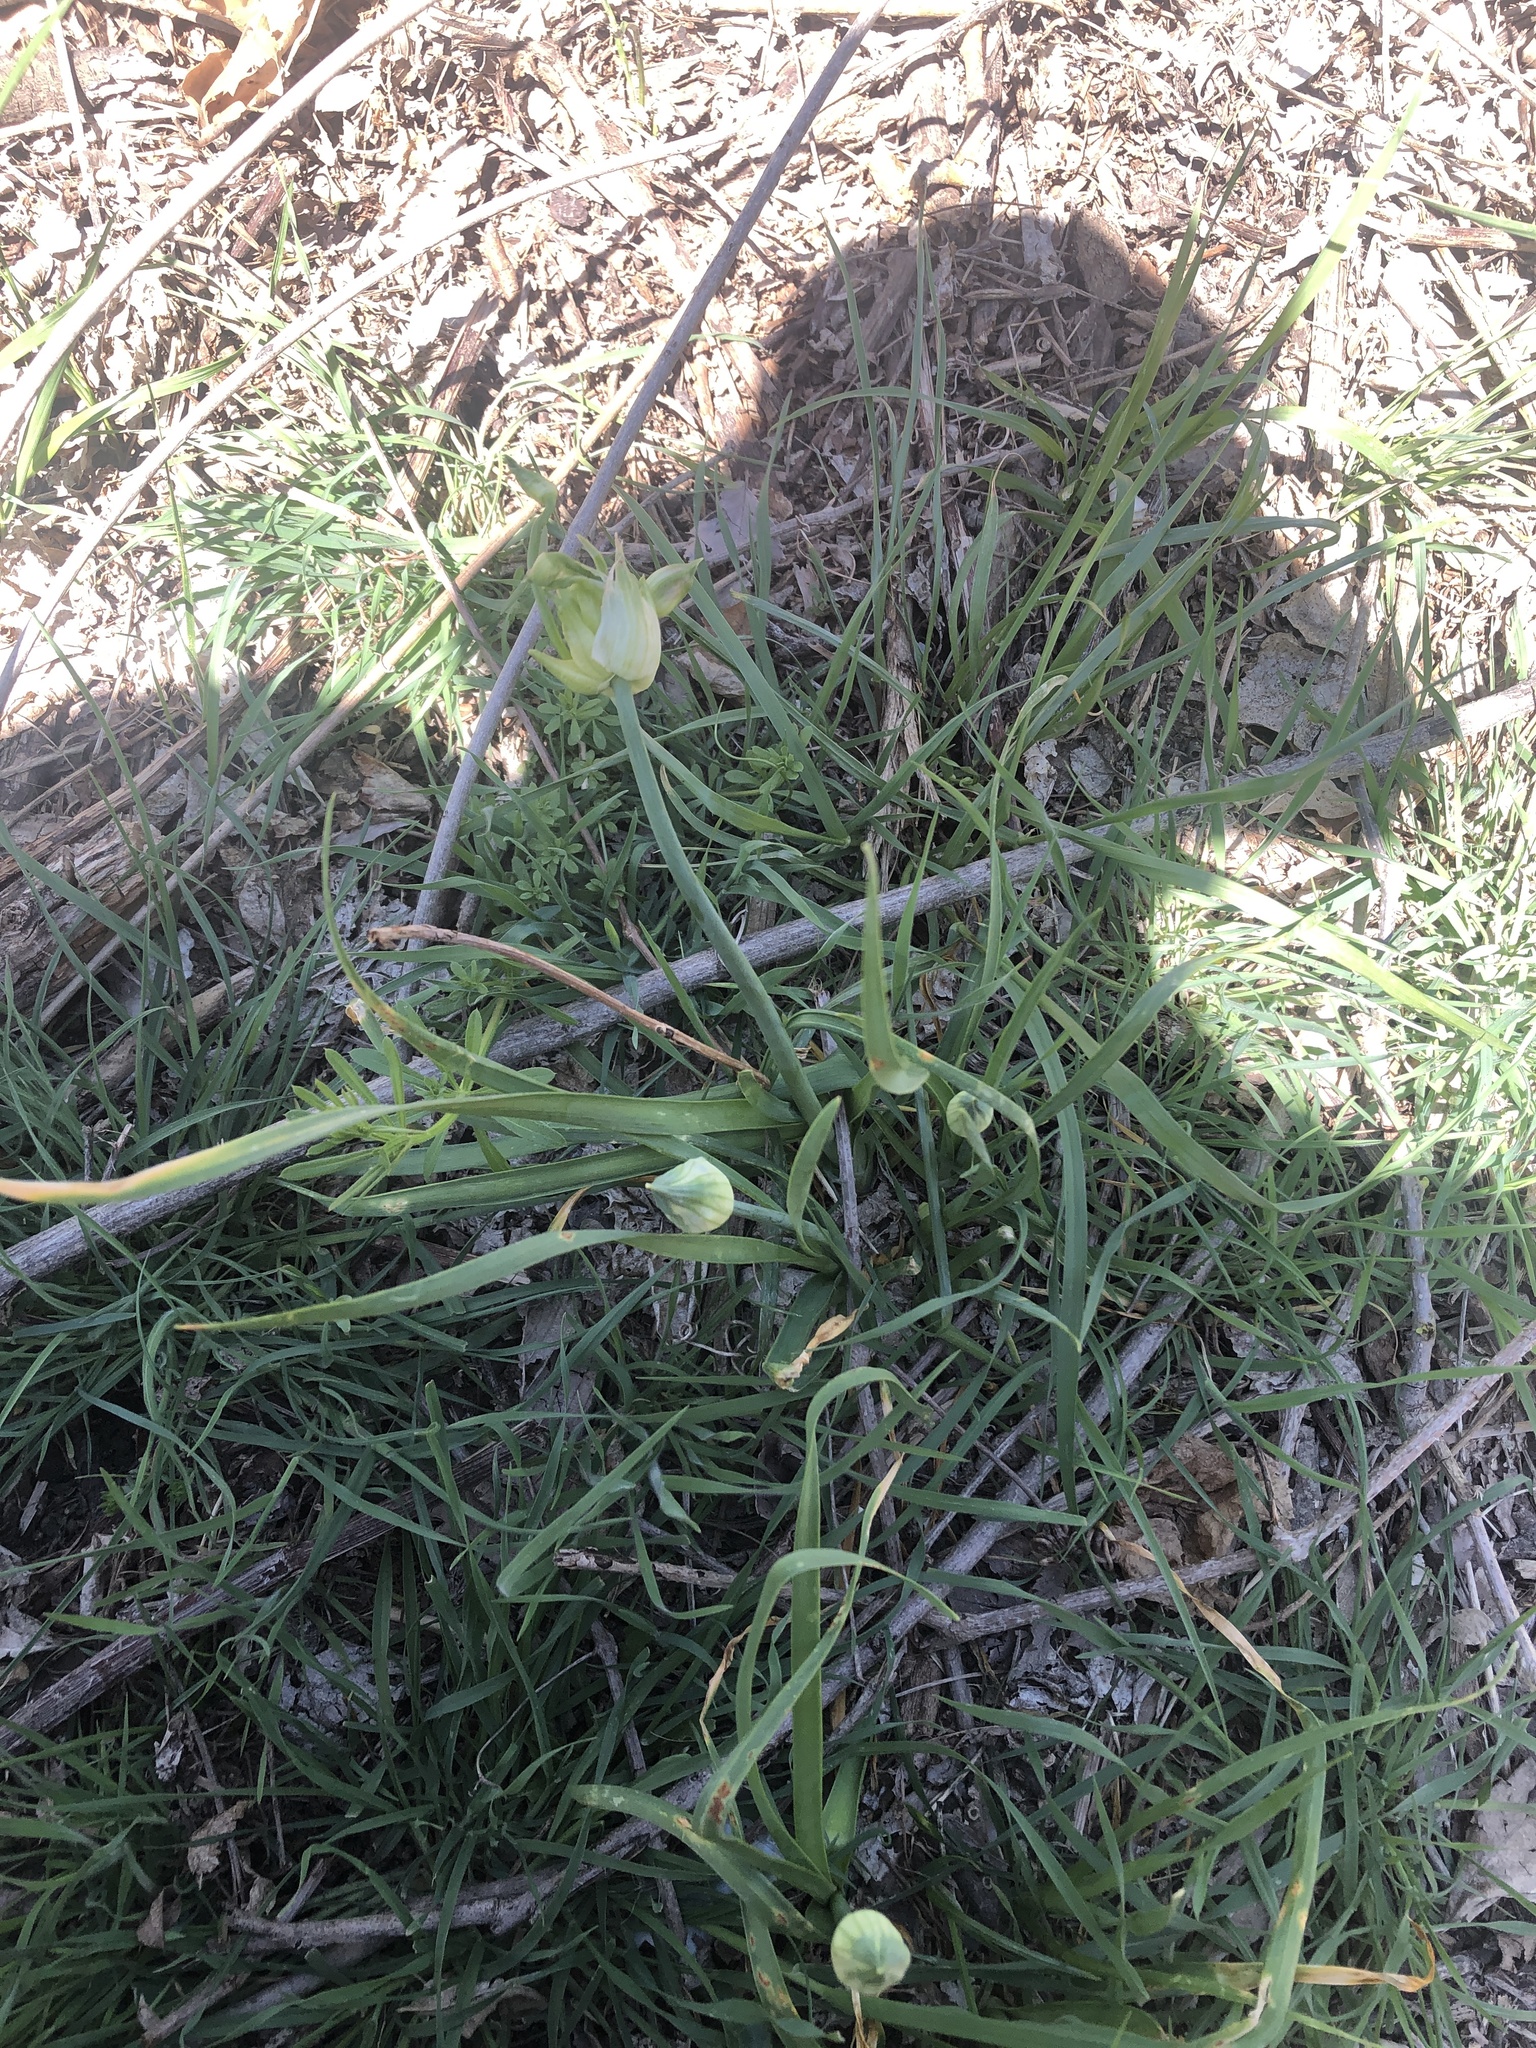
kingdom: Plantae
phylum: Tracheophyta
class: Liliopsida
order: Asparagales
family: Amaryllidaceae
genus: Allium
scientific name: Allium canadense
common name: Meadow garlic
